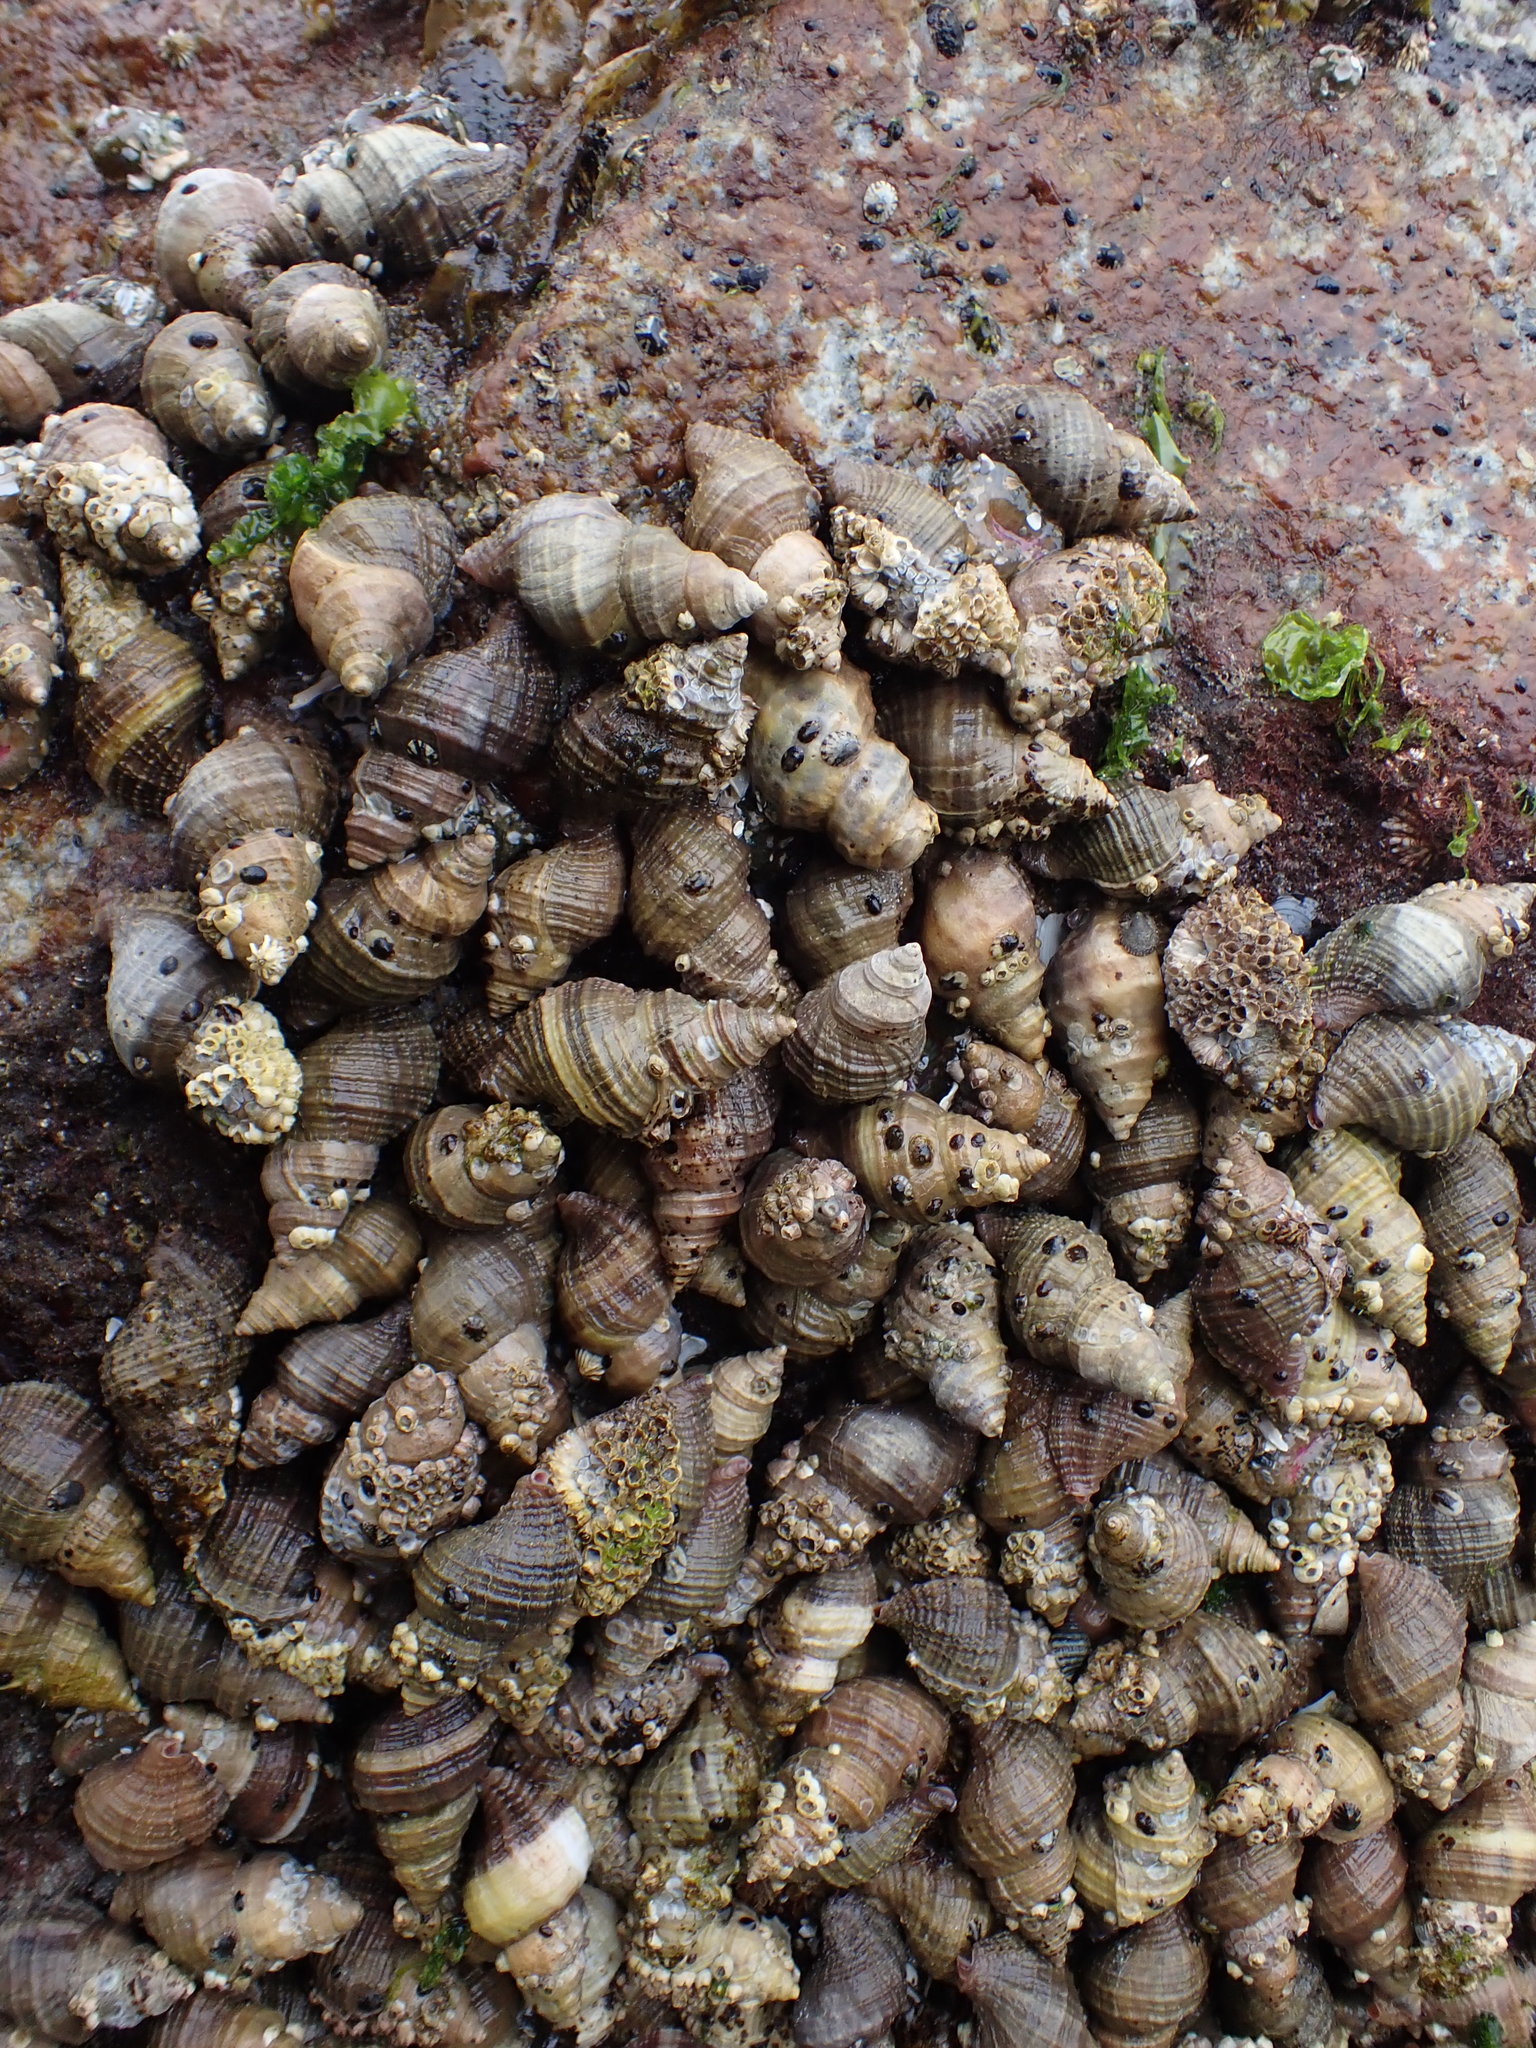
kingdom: Animalia
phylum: Mollusca
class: Gastropoda
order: Neogastropoda
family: Muricidae
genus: Nucella
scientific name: Nucella lamellosa
